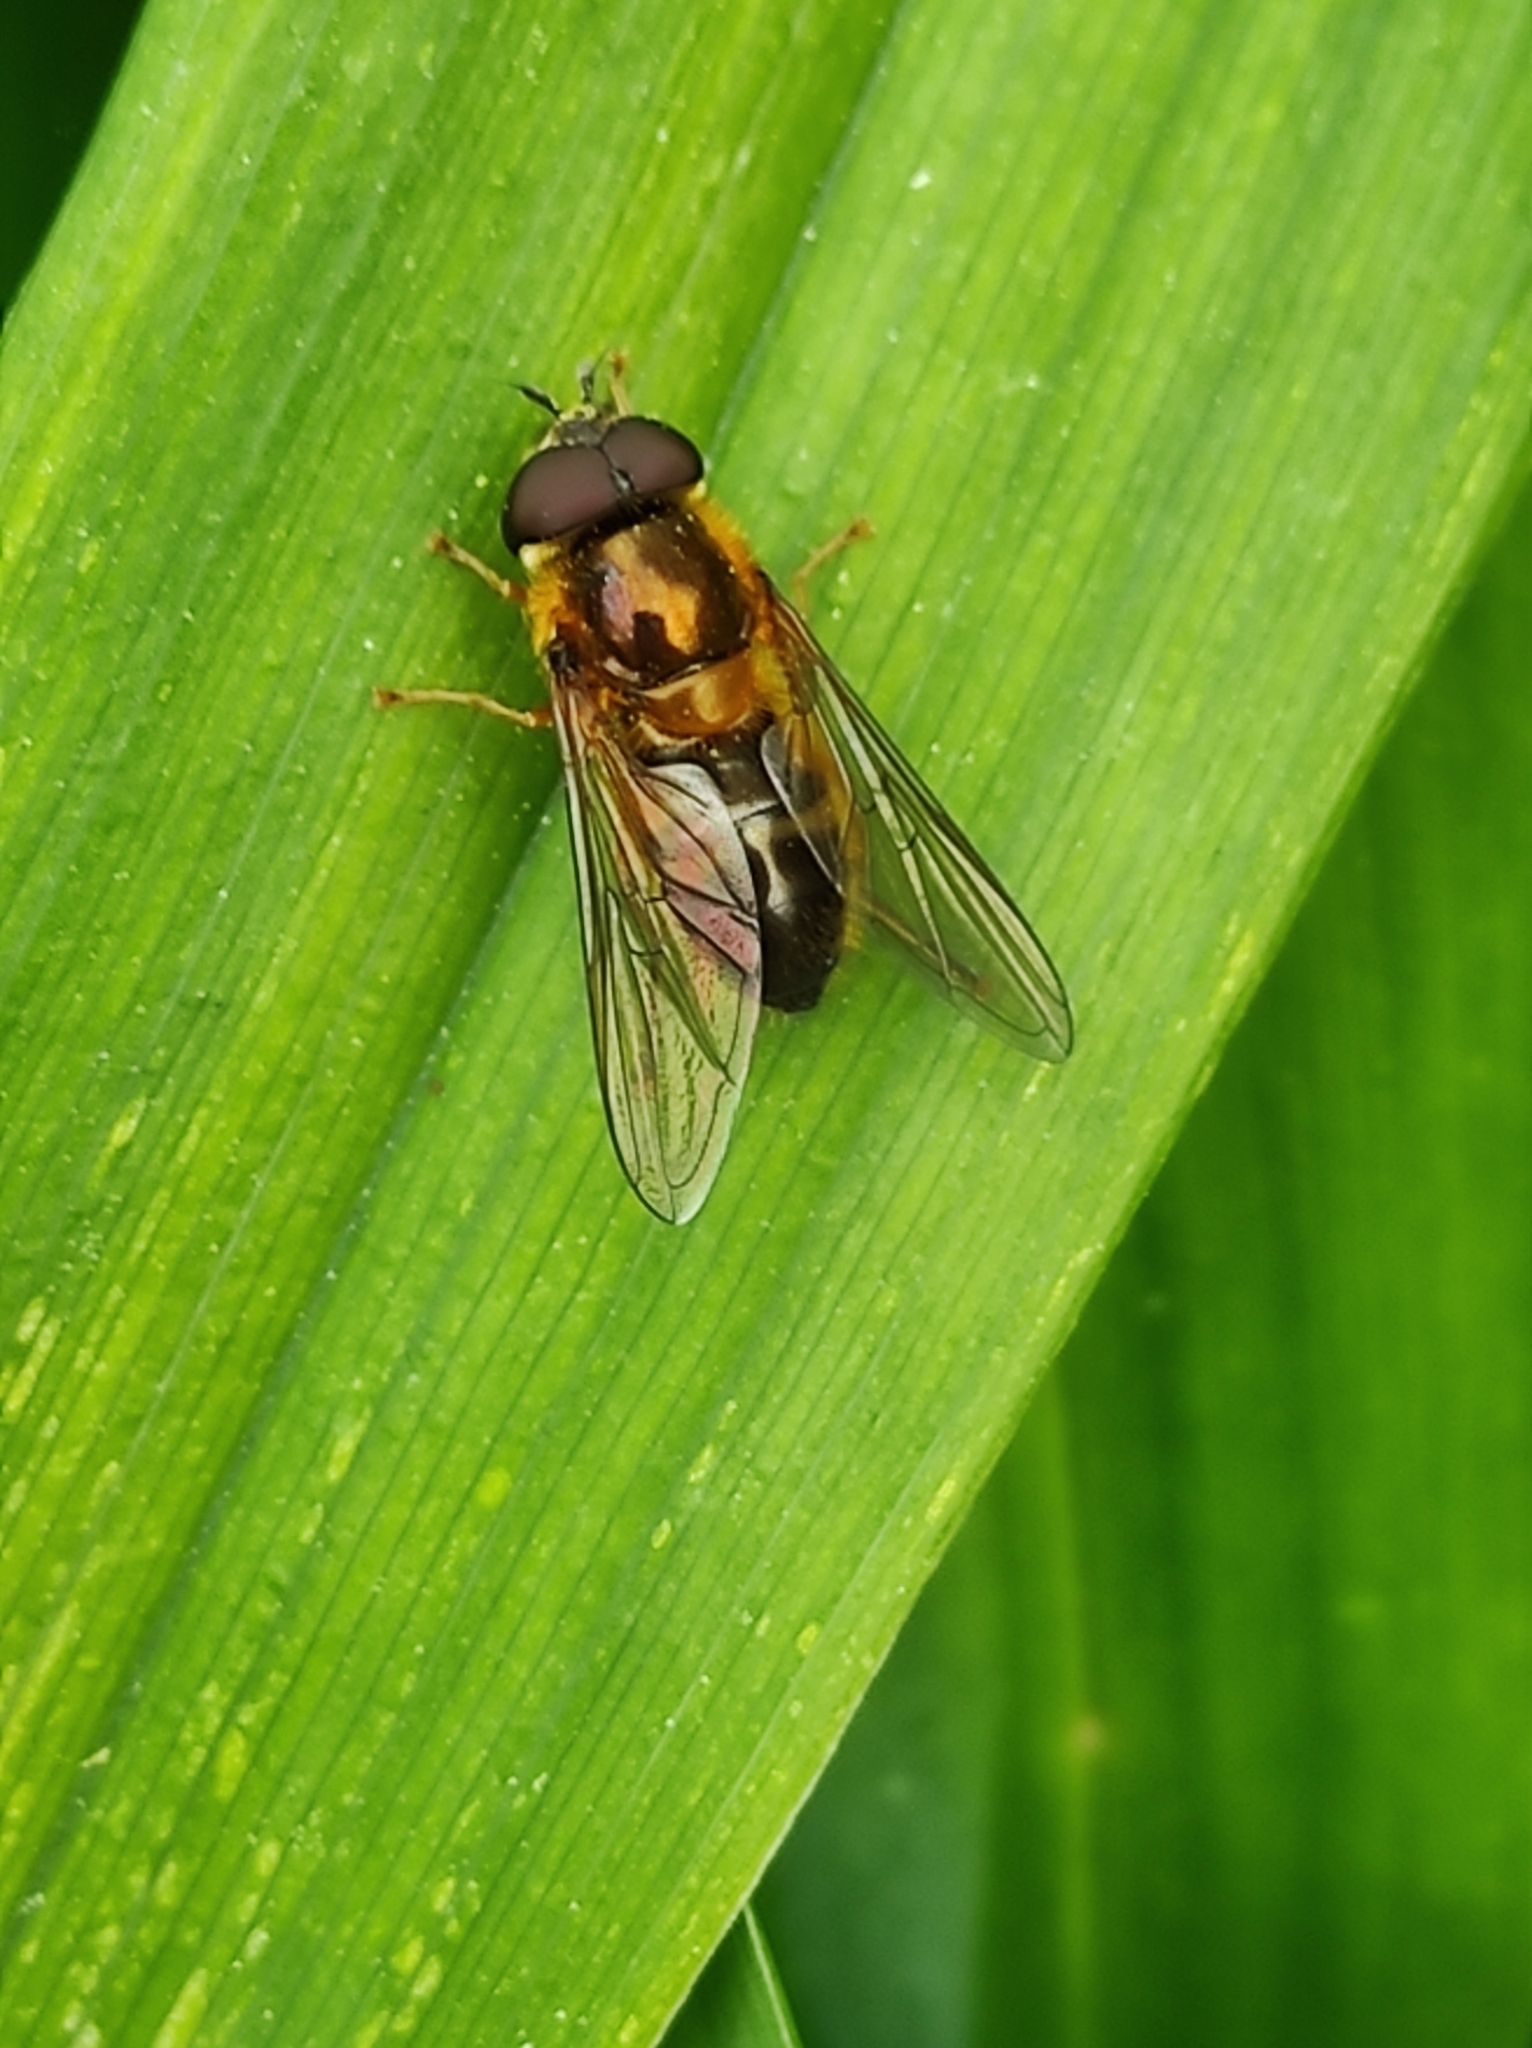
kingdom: Animalia
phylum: Arthropoda
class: Insecta
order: Diptera
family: Syrphidae
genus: Epistrophe
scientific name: Epistrophe eligans
